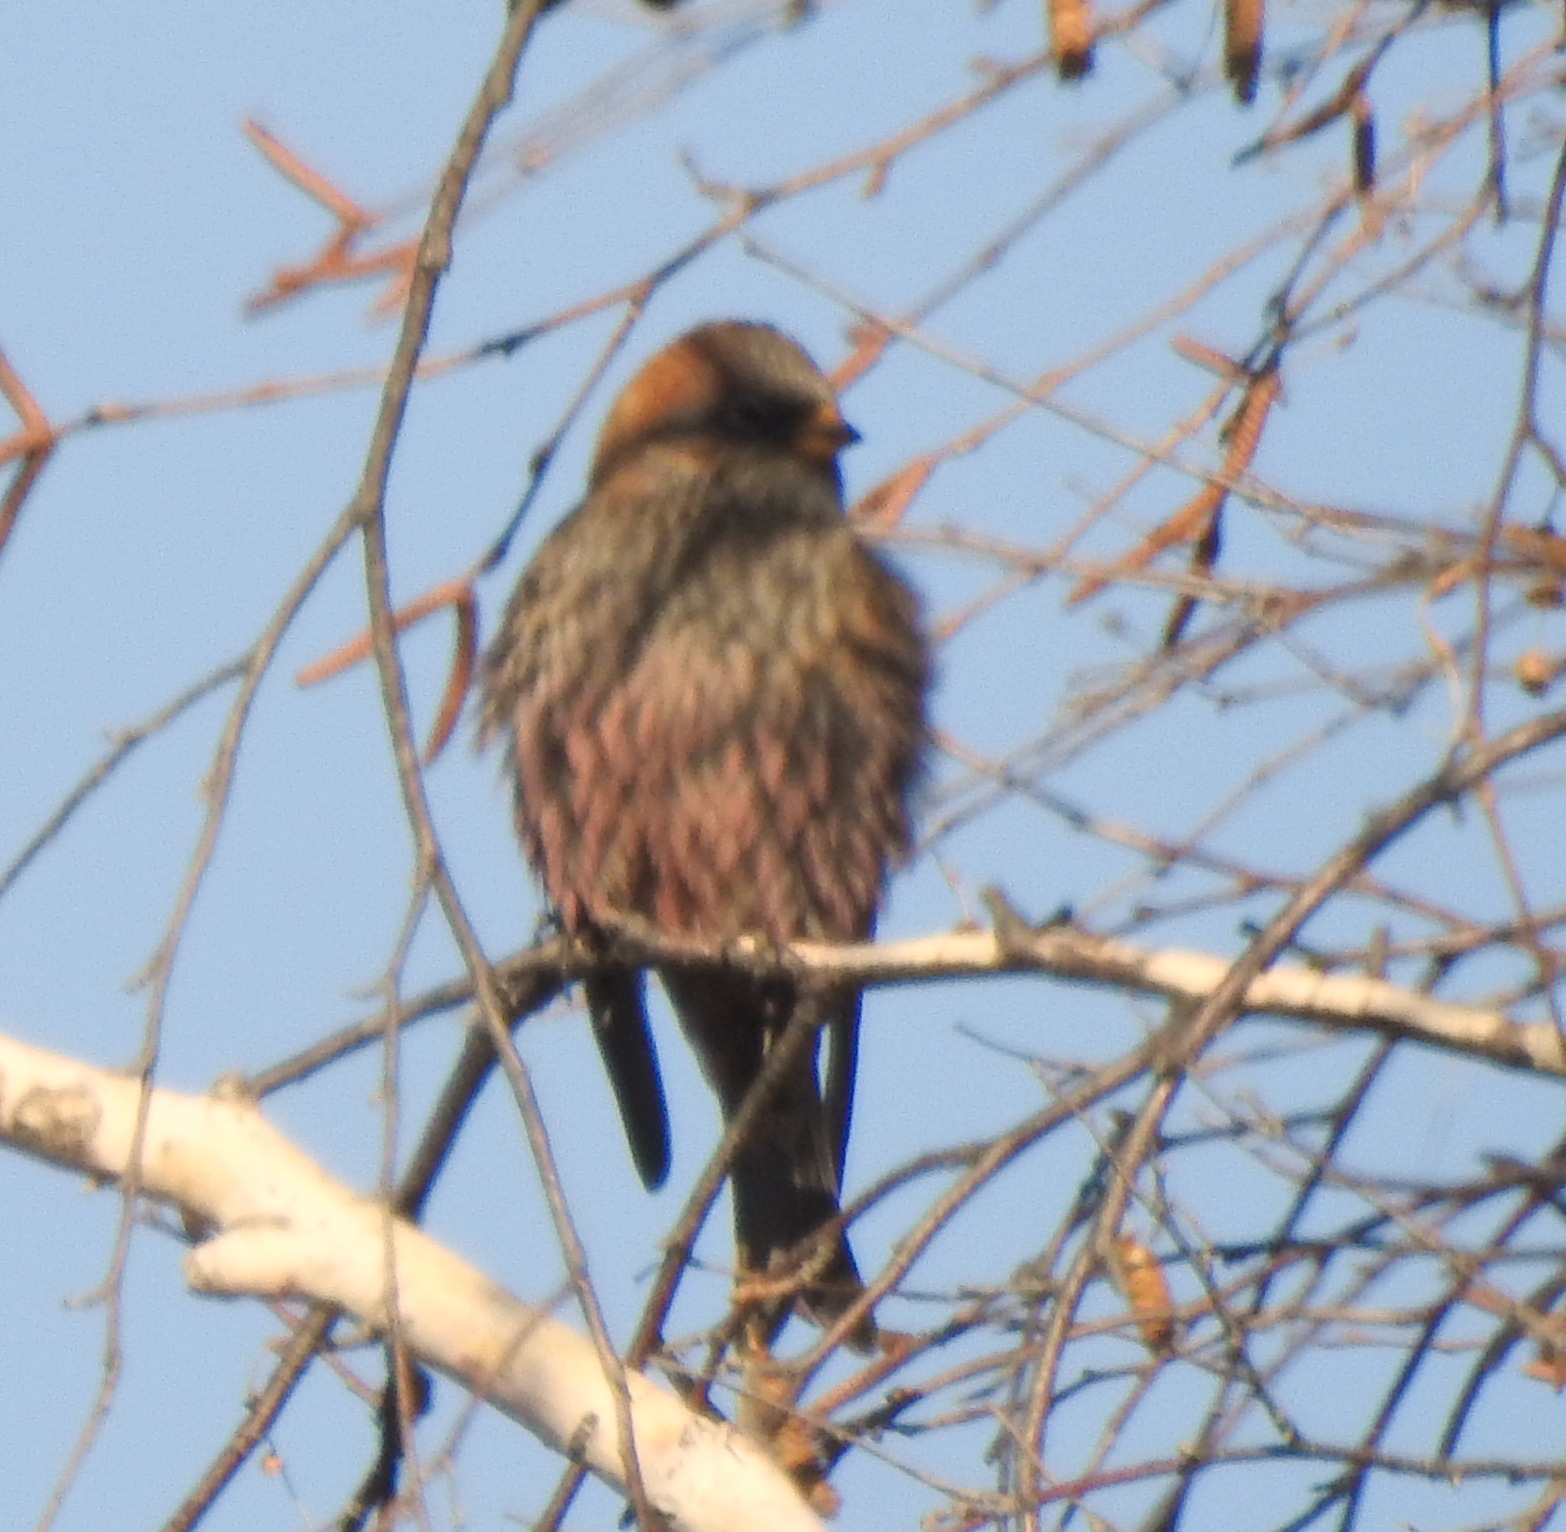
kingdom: Animalia
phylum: Chordata
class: Aves
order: Passeriformes
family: Fringillidae
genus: Leucosticte
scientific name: Leucosticte arctoa
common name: Asian rosy finch
